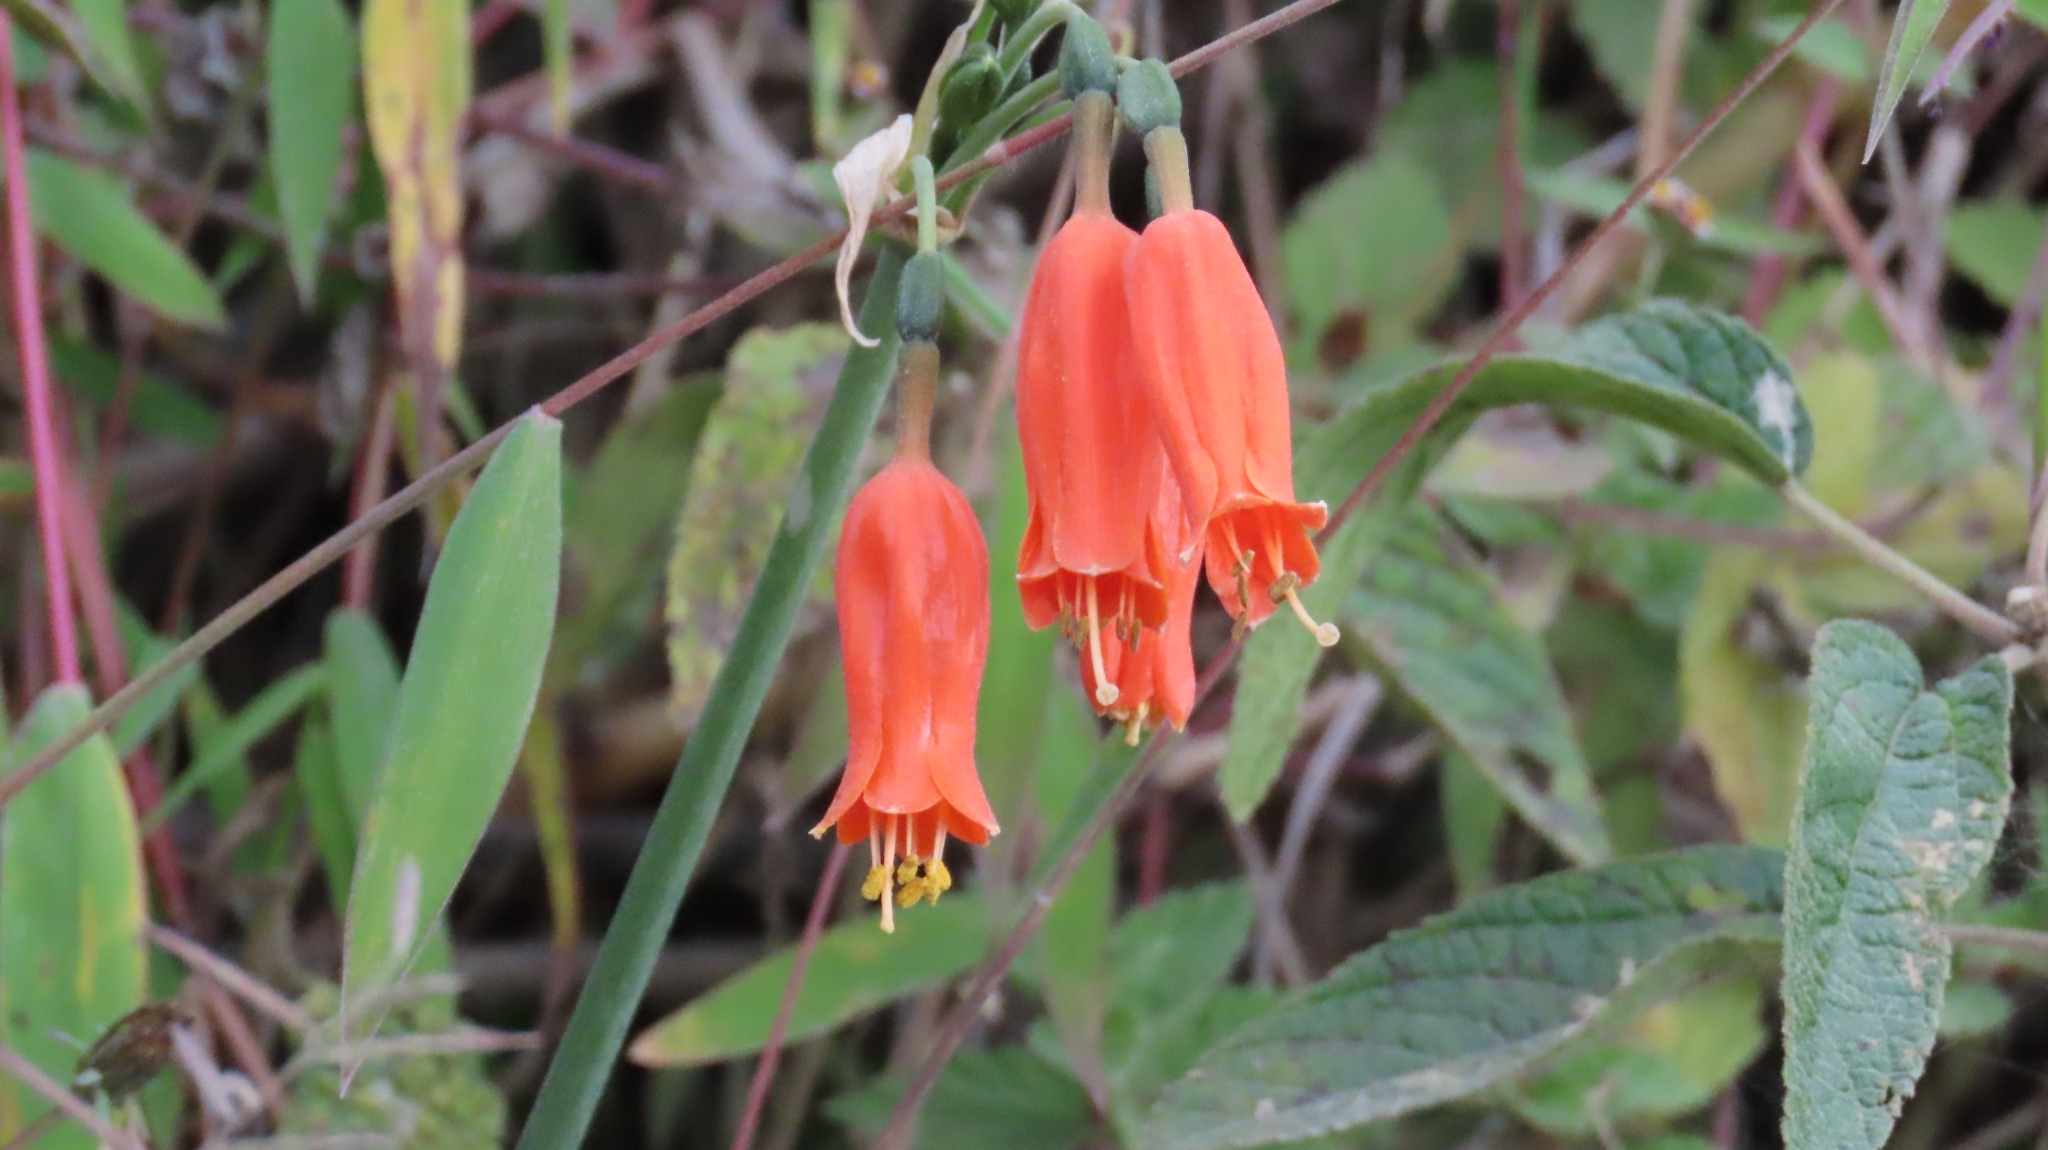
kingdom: Plantae
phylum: Tracheophyta
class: Liliopsida
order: Asparagales
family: Amaryllidaceae
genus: Stenomesson
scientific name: Stenomesson miniatum
